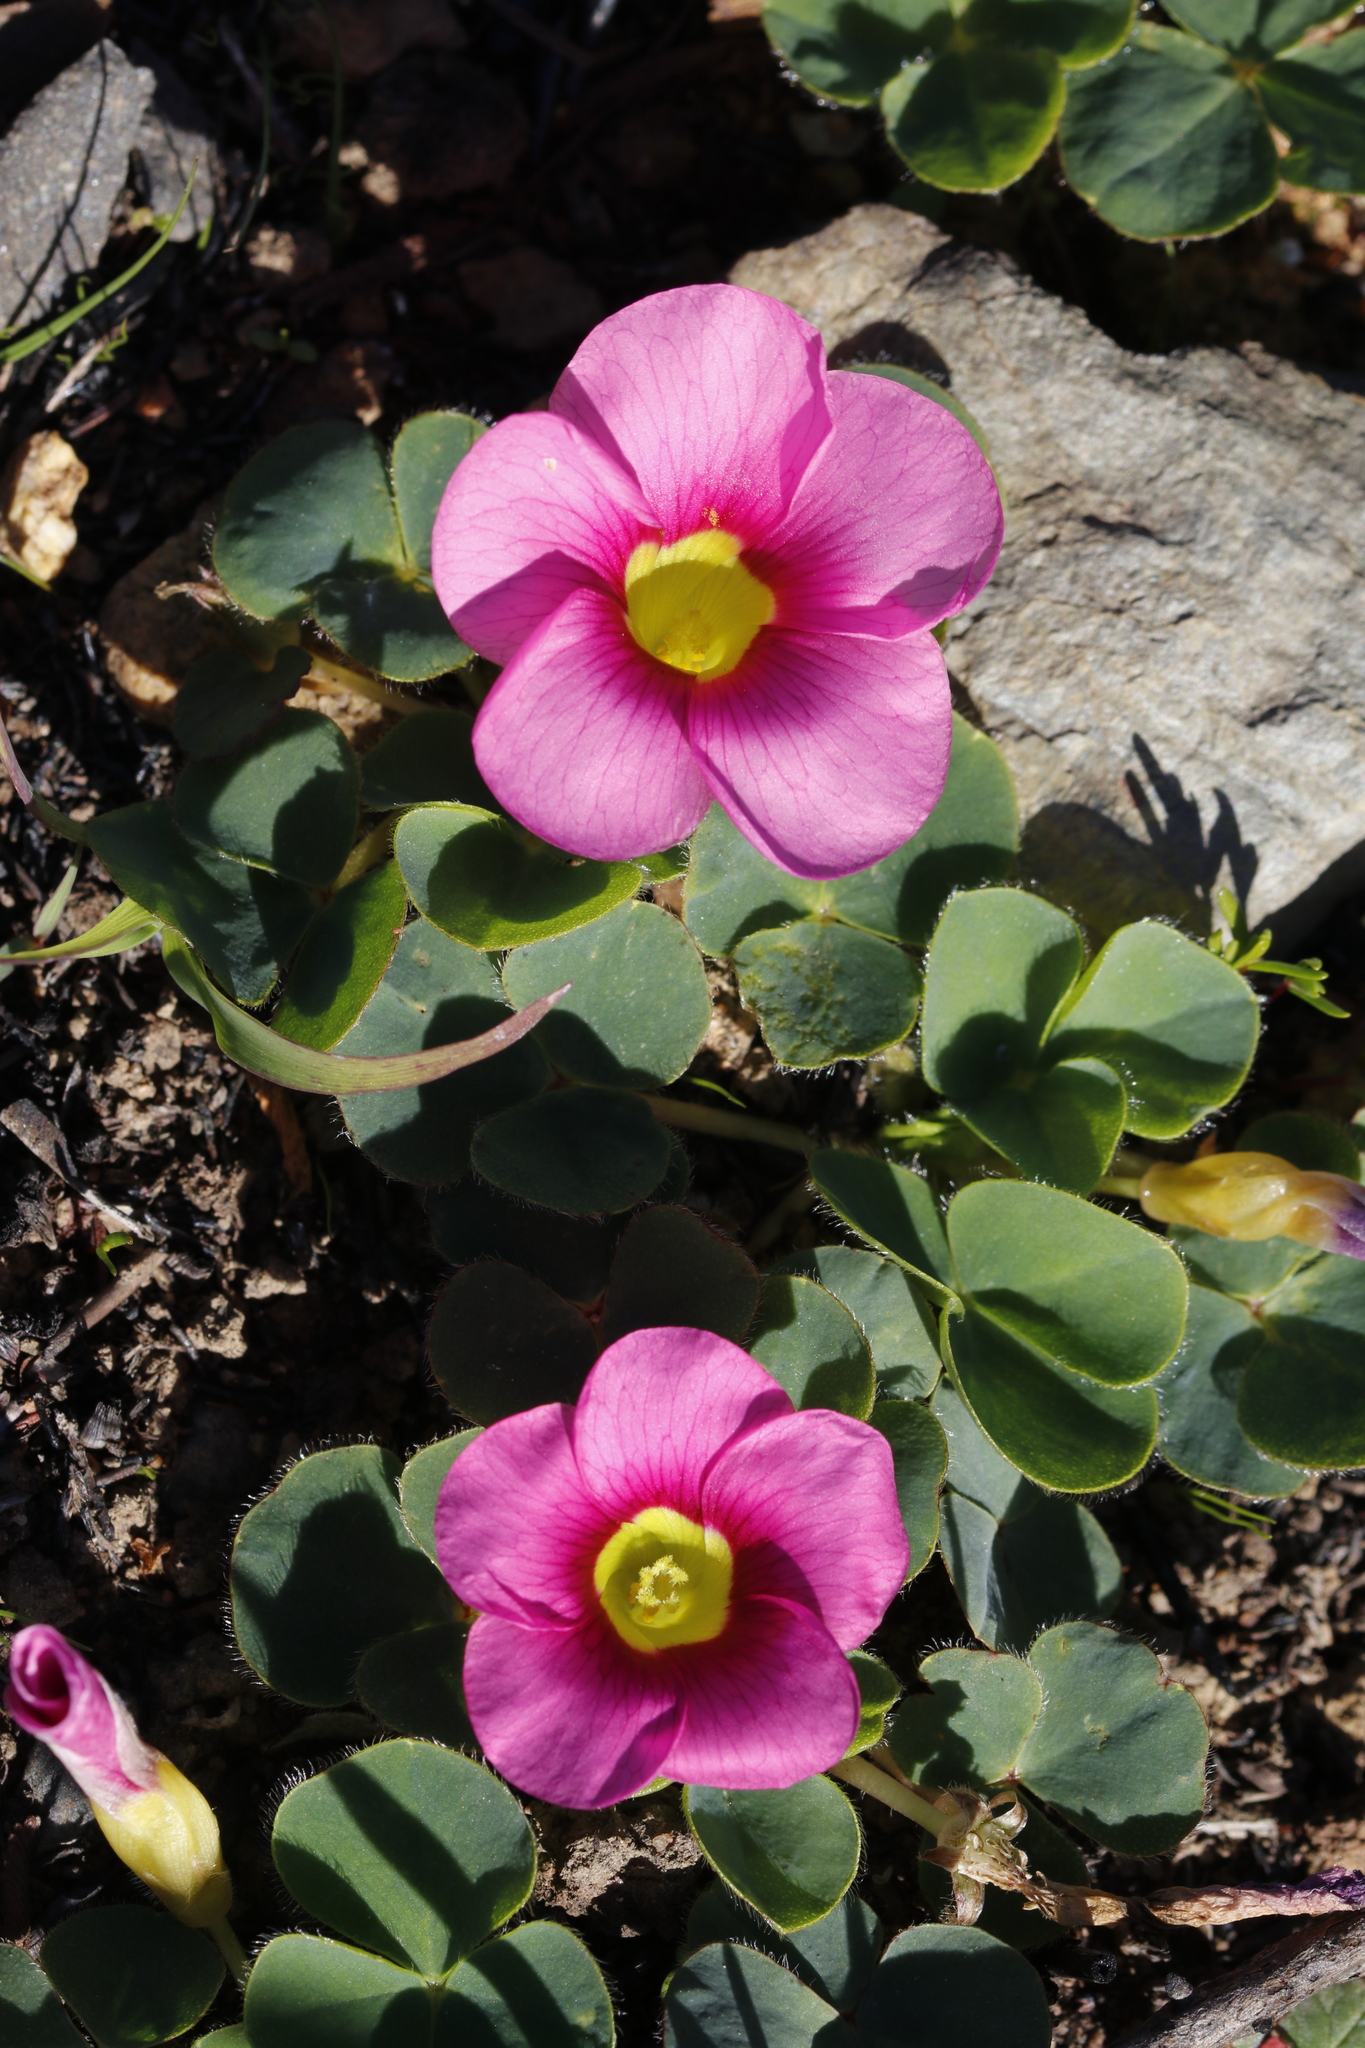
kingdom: Plantae
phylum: Tracheophyta
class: Magnoliopsida
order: Oxalidales
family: Oxalidaceae
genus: Oxalis
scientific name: Oxalis purpurea
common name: Purple woodsorrel
